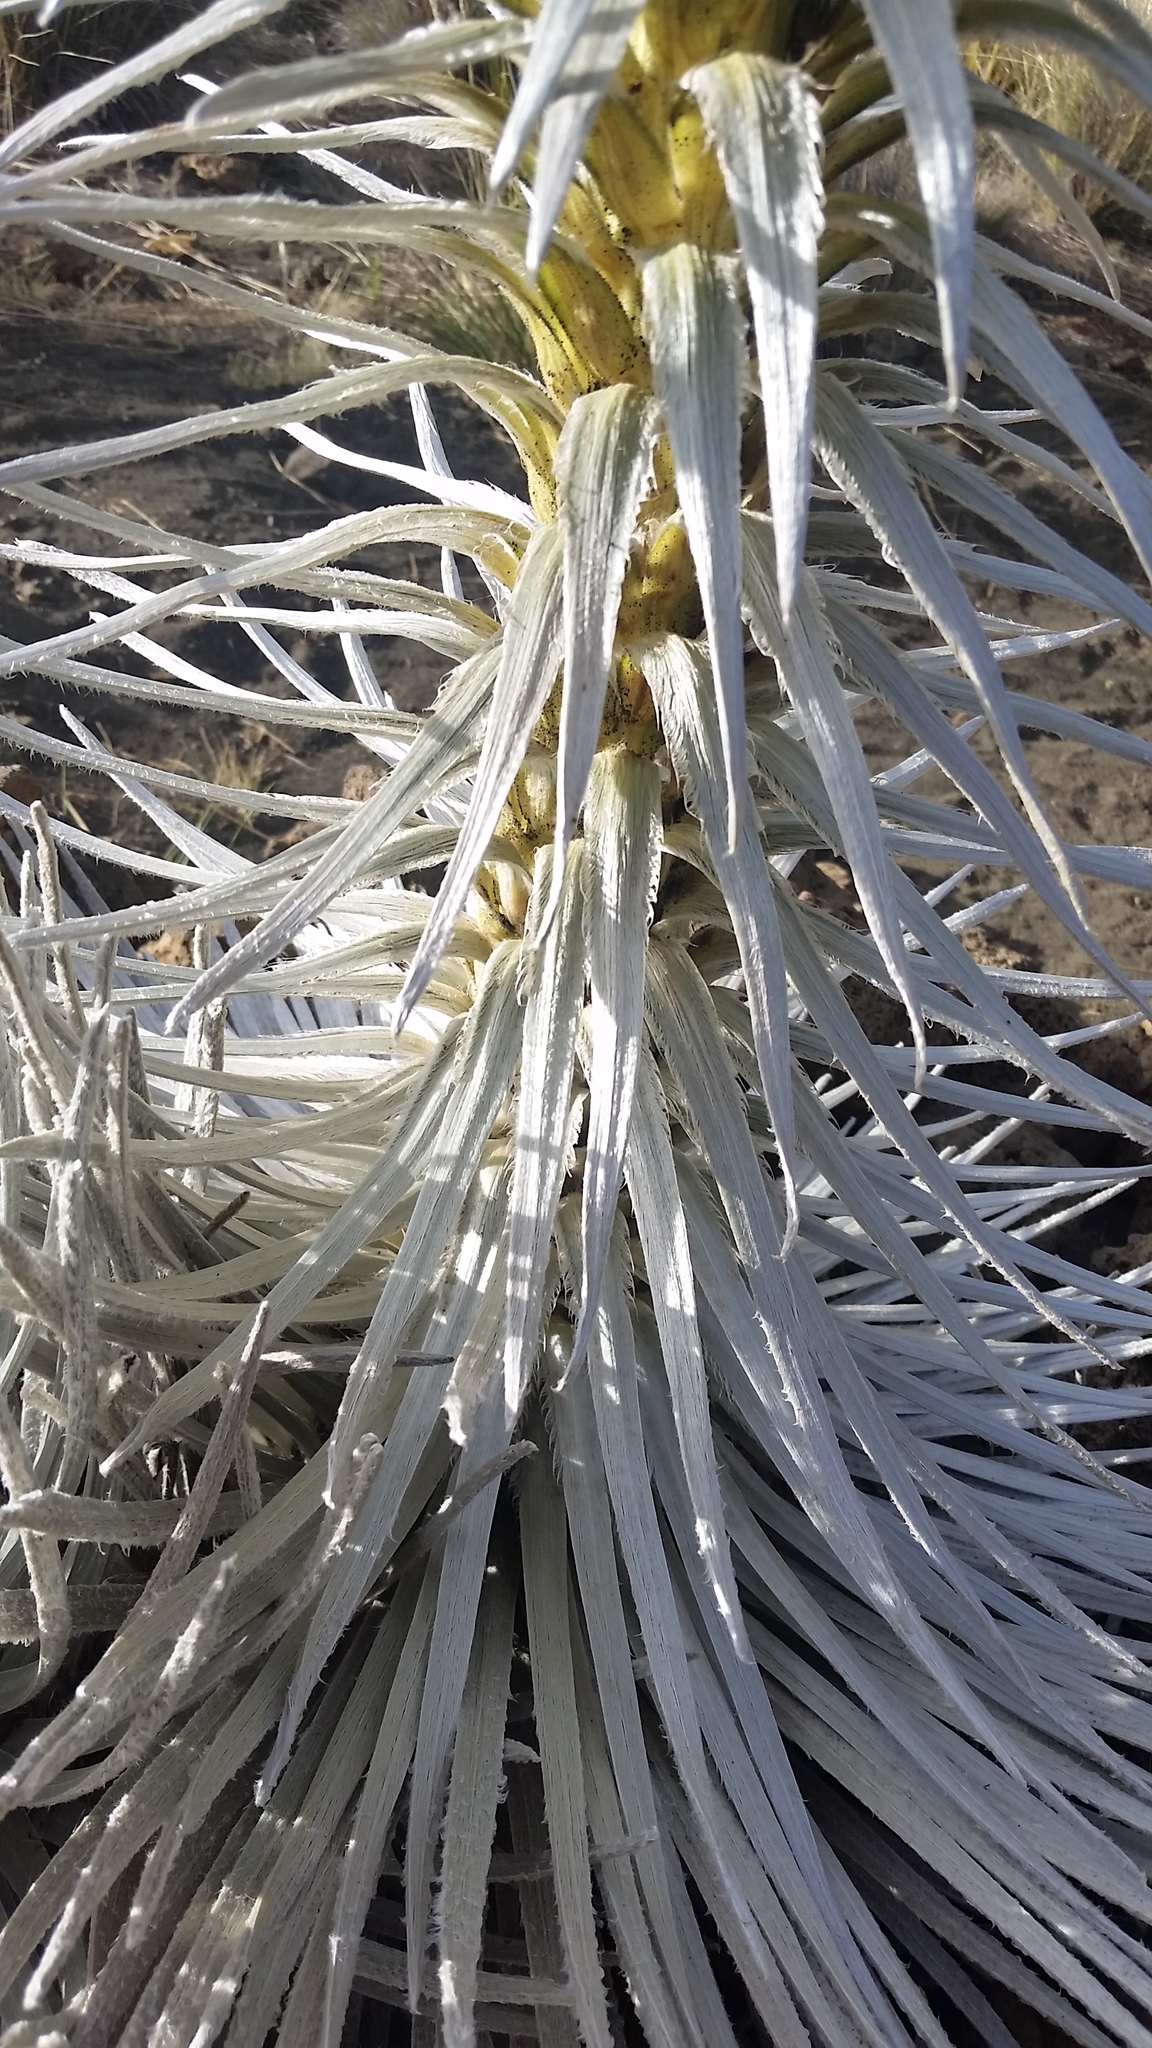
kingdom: Plantae
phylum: Tracheophyta
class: Magnoliopsida
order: Asterales
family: Asteraceae
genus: Argyroxiphium
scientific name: Argyroxiphium sandwicense
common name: Silversword
